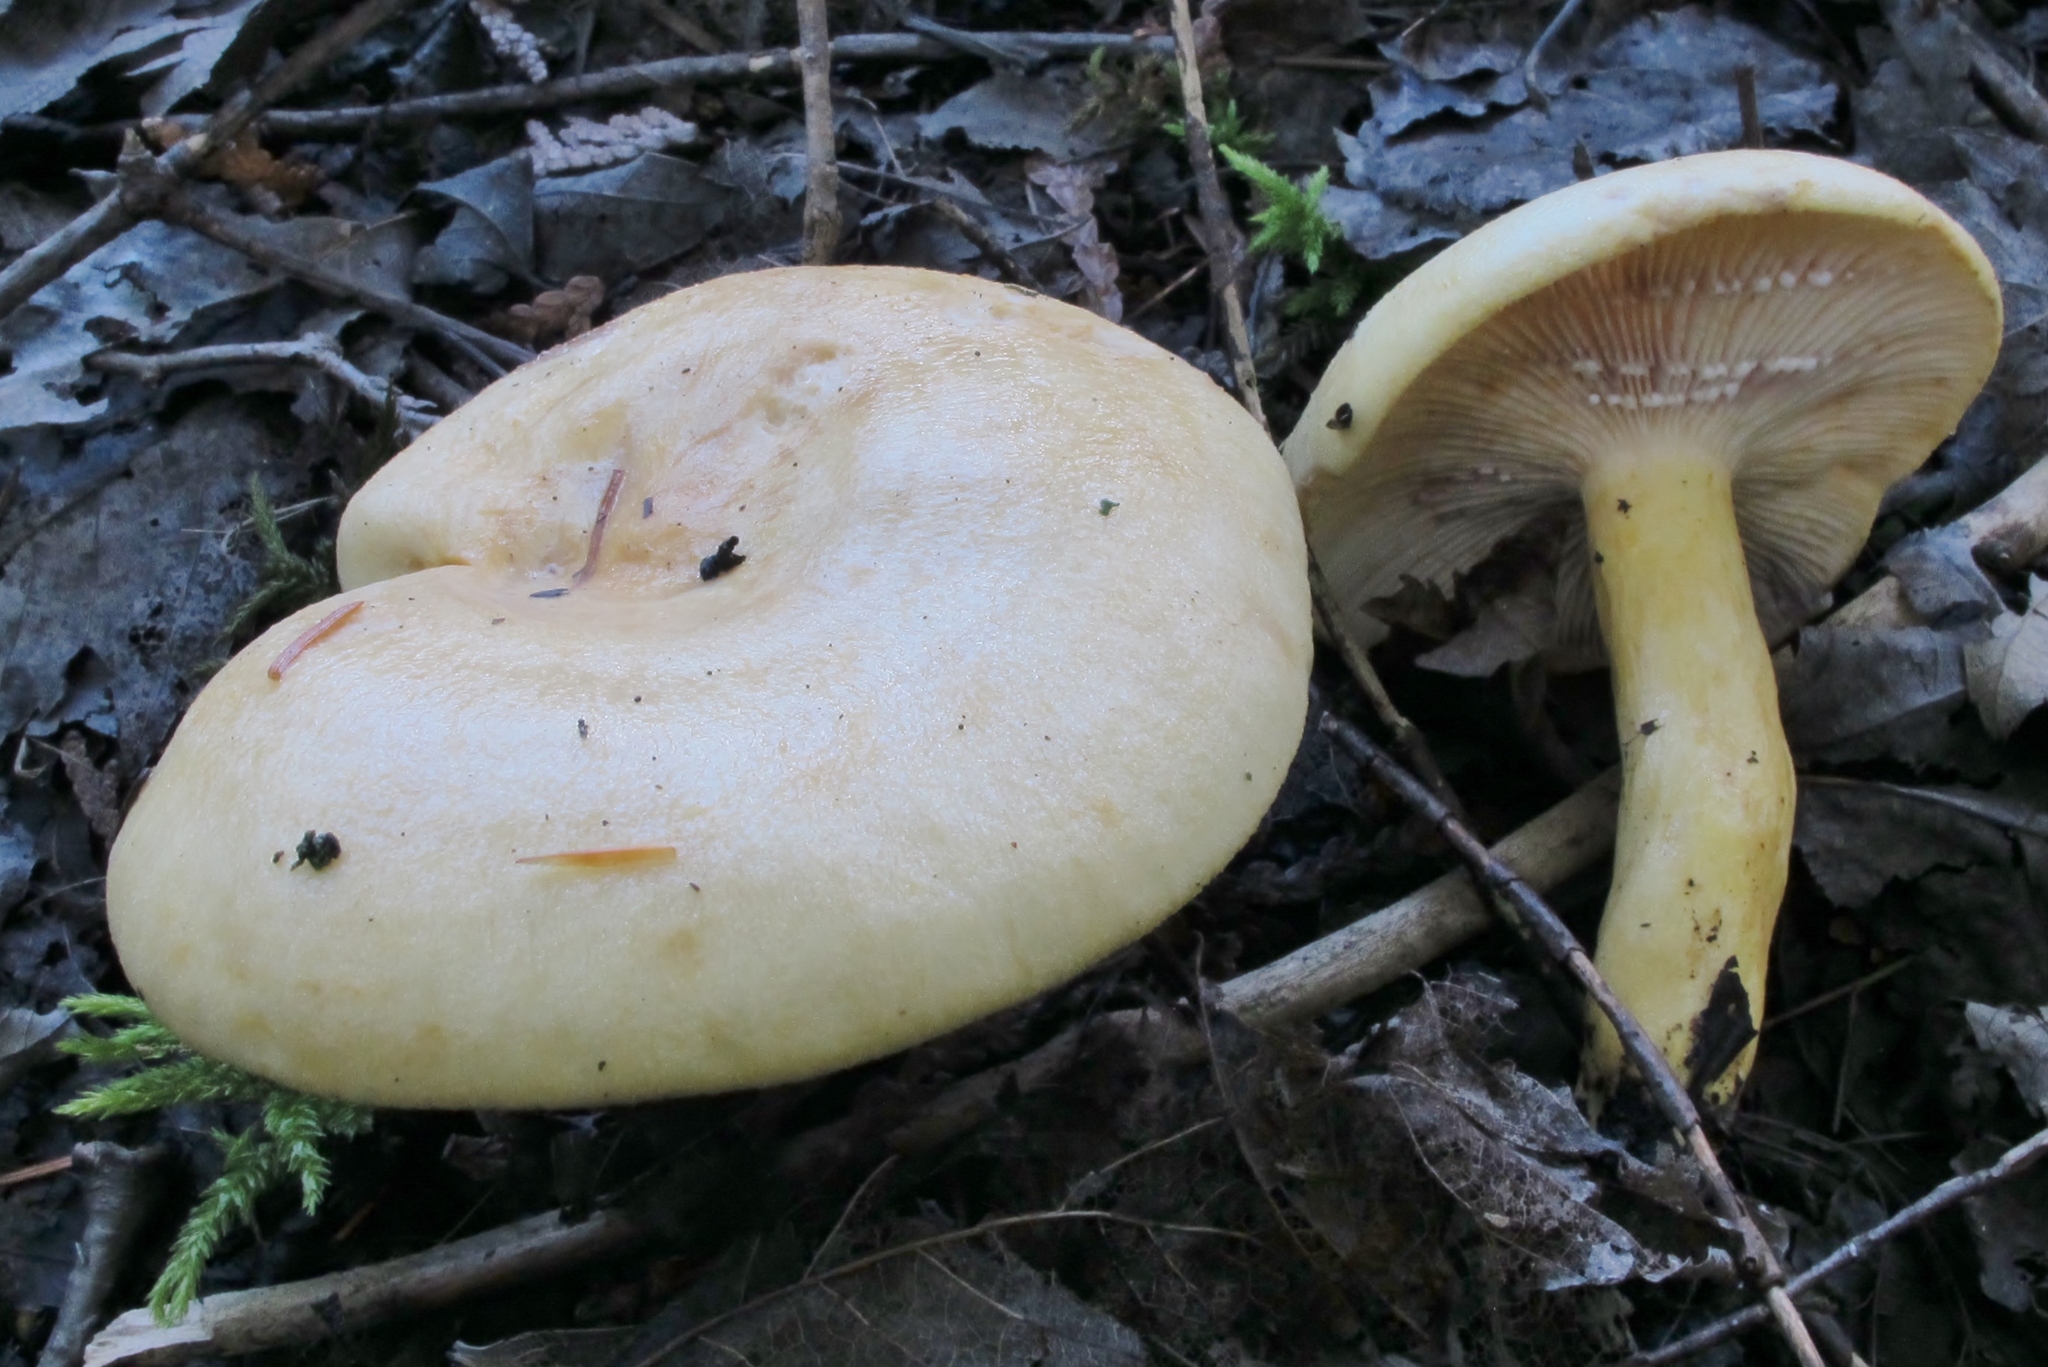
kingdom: Fungi
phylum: Basidiomycota
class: Agaricomycetes
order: Russulales
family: Russulaceae
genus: Lactarius
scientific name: Lactarius salicis-reticulatae
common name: Mountain milkcap
